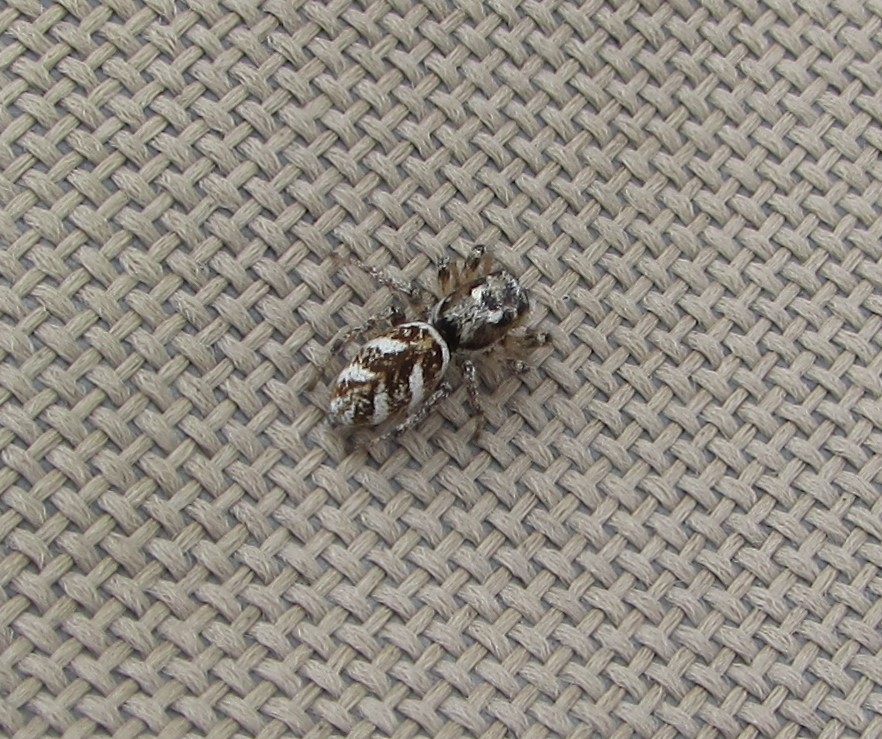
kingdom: Animalia
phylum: Arthropoda
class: Arachnida
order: Araneae
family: Salticidae
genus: Salticus
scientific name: Salticus scenicus
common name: Zebra jumper
